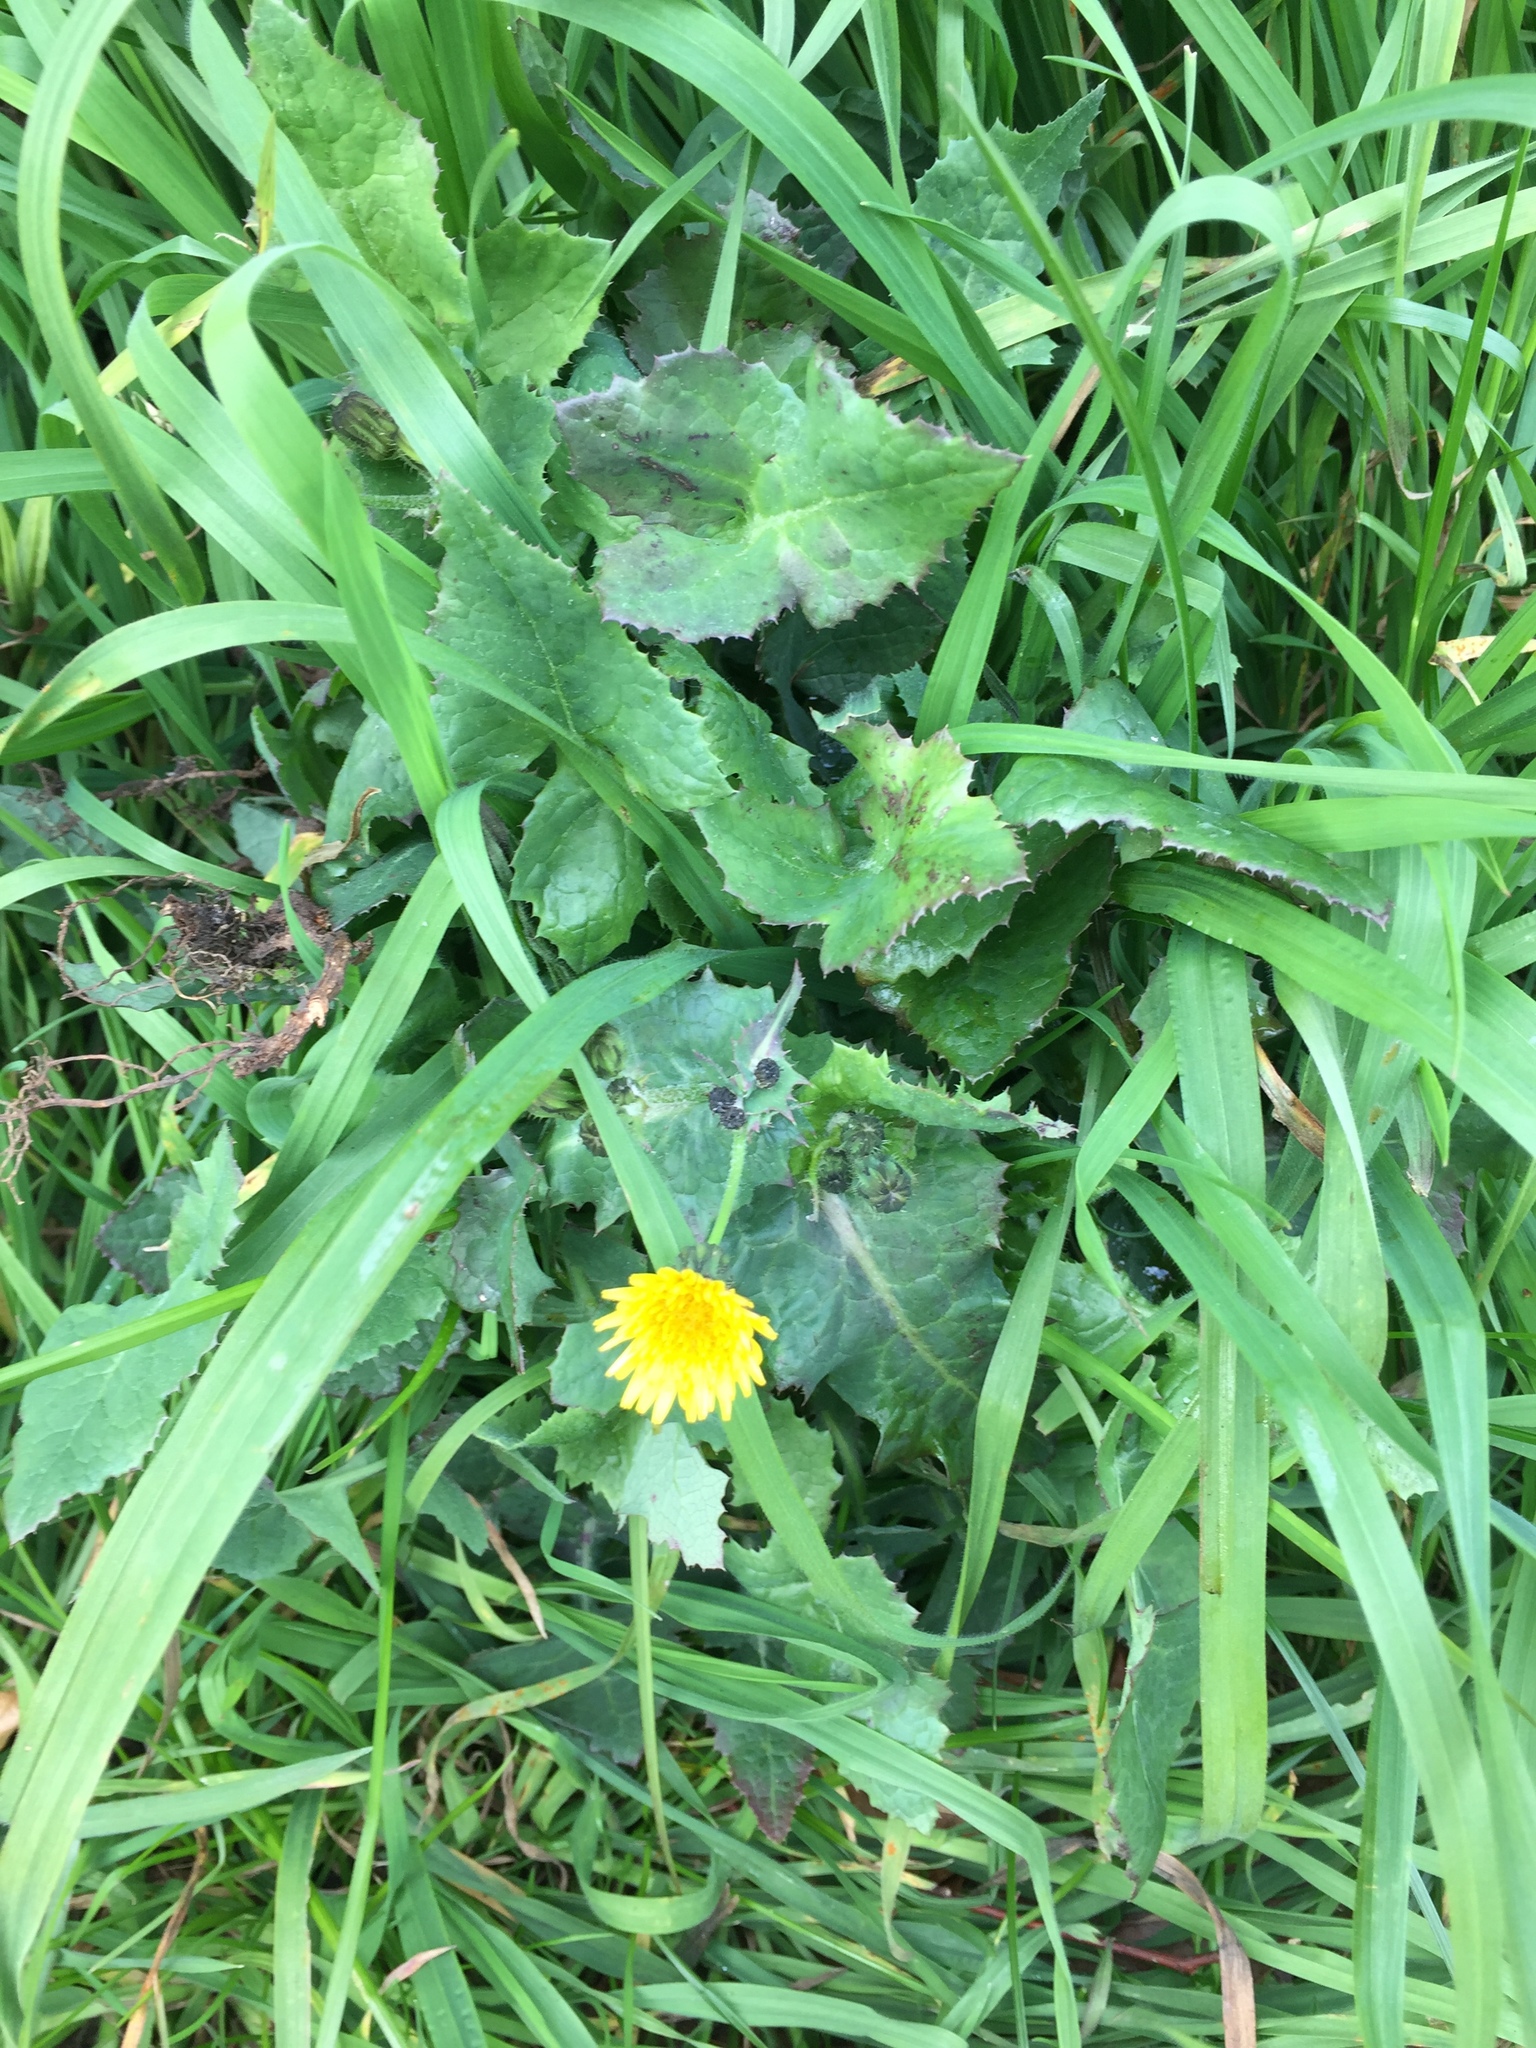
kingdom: Plantae
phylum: Tracheophyta
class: Magnoliopsida
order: Asterales
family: Asteraceae
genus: Sonchus
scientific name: Sonchus oleraceus
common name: Common sowthistle
